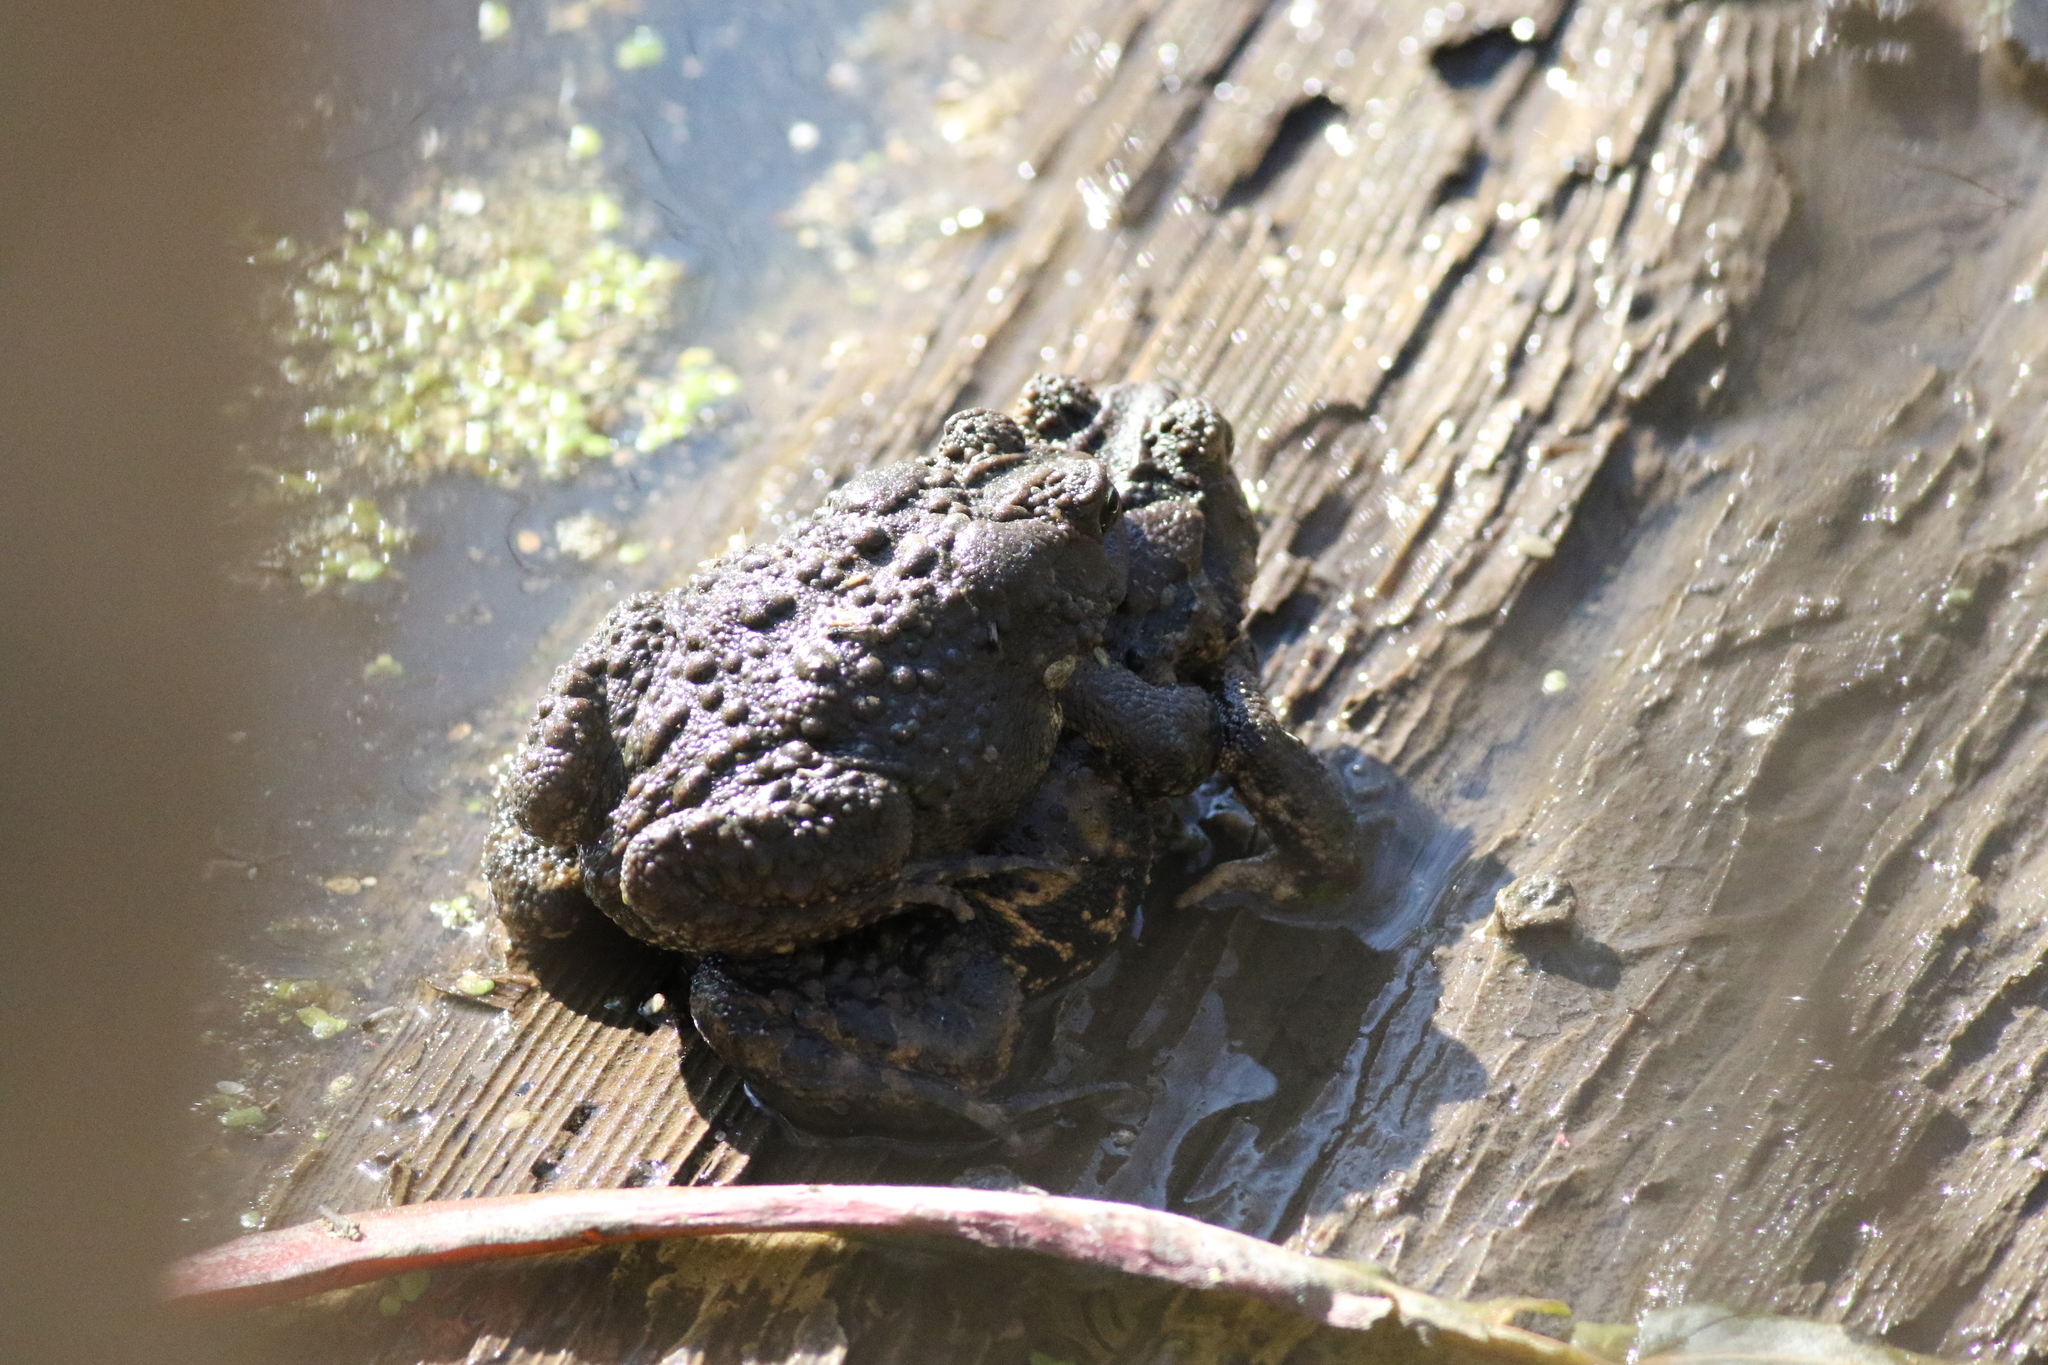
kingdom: Animalia
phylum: Chordata
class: Amphibia
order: Anura
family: Bufonidae
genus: Anaxyrus
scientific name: Anaxyrus americanus
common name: American toad
